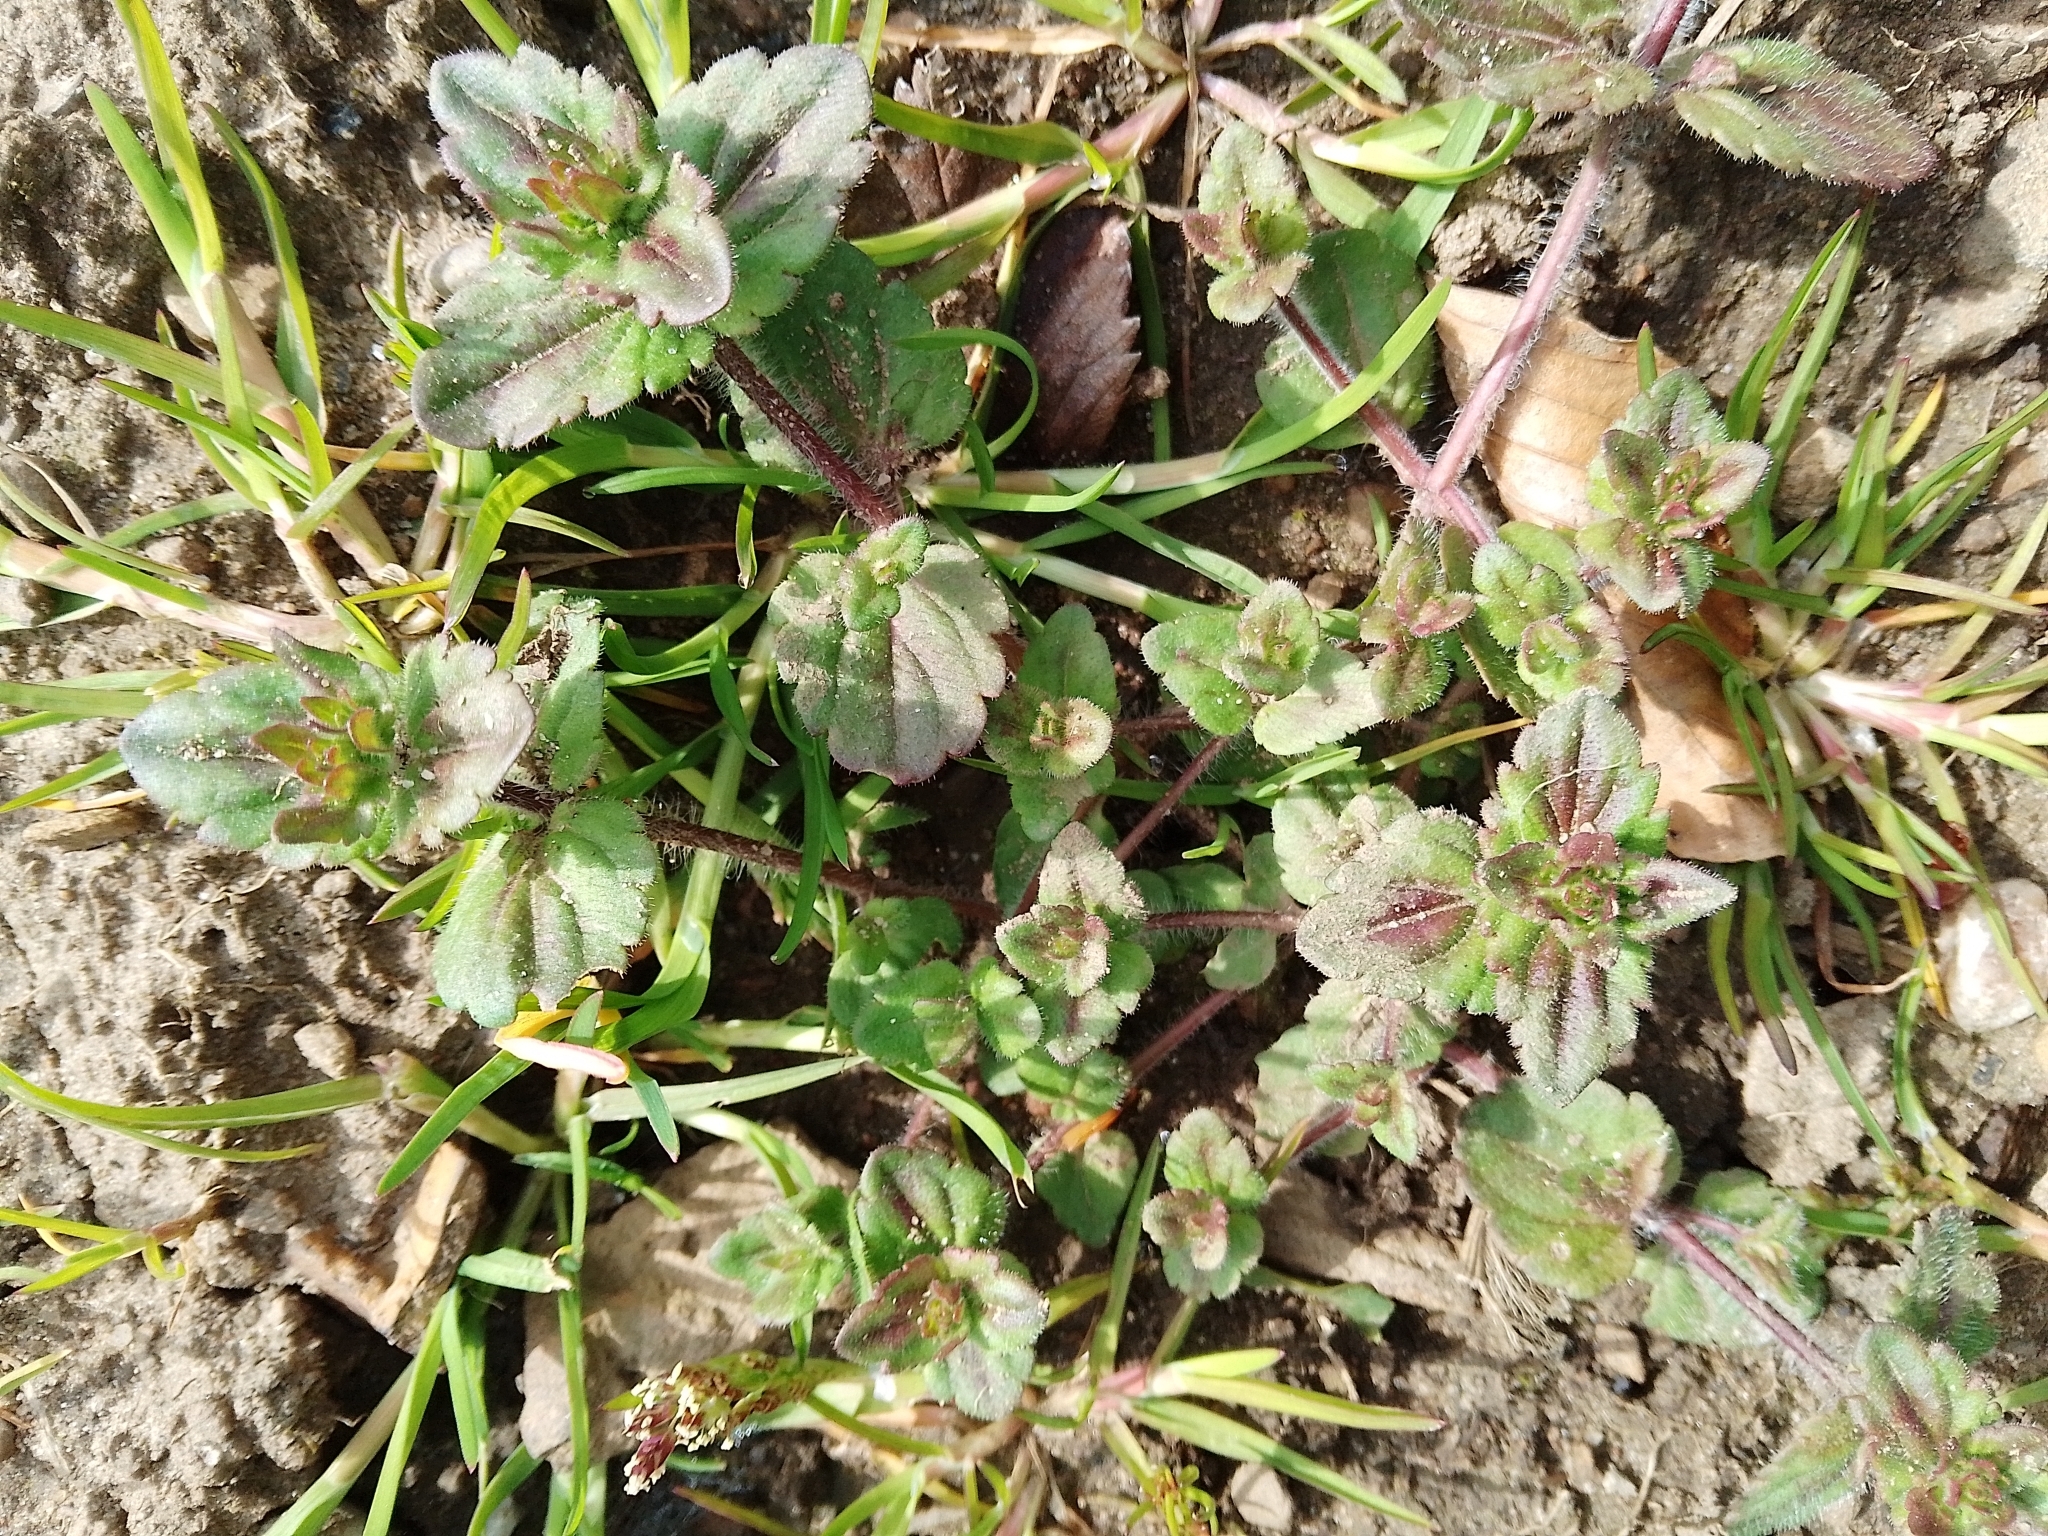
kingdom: Plantae
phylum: Tracheophyta
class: Magnoliopsida
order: Lamiales
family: Plantaginaceae
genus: Veronica
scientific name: Veronica arvensis
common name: Corn speedwell
